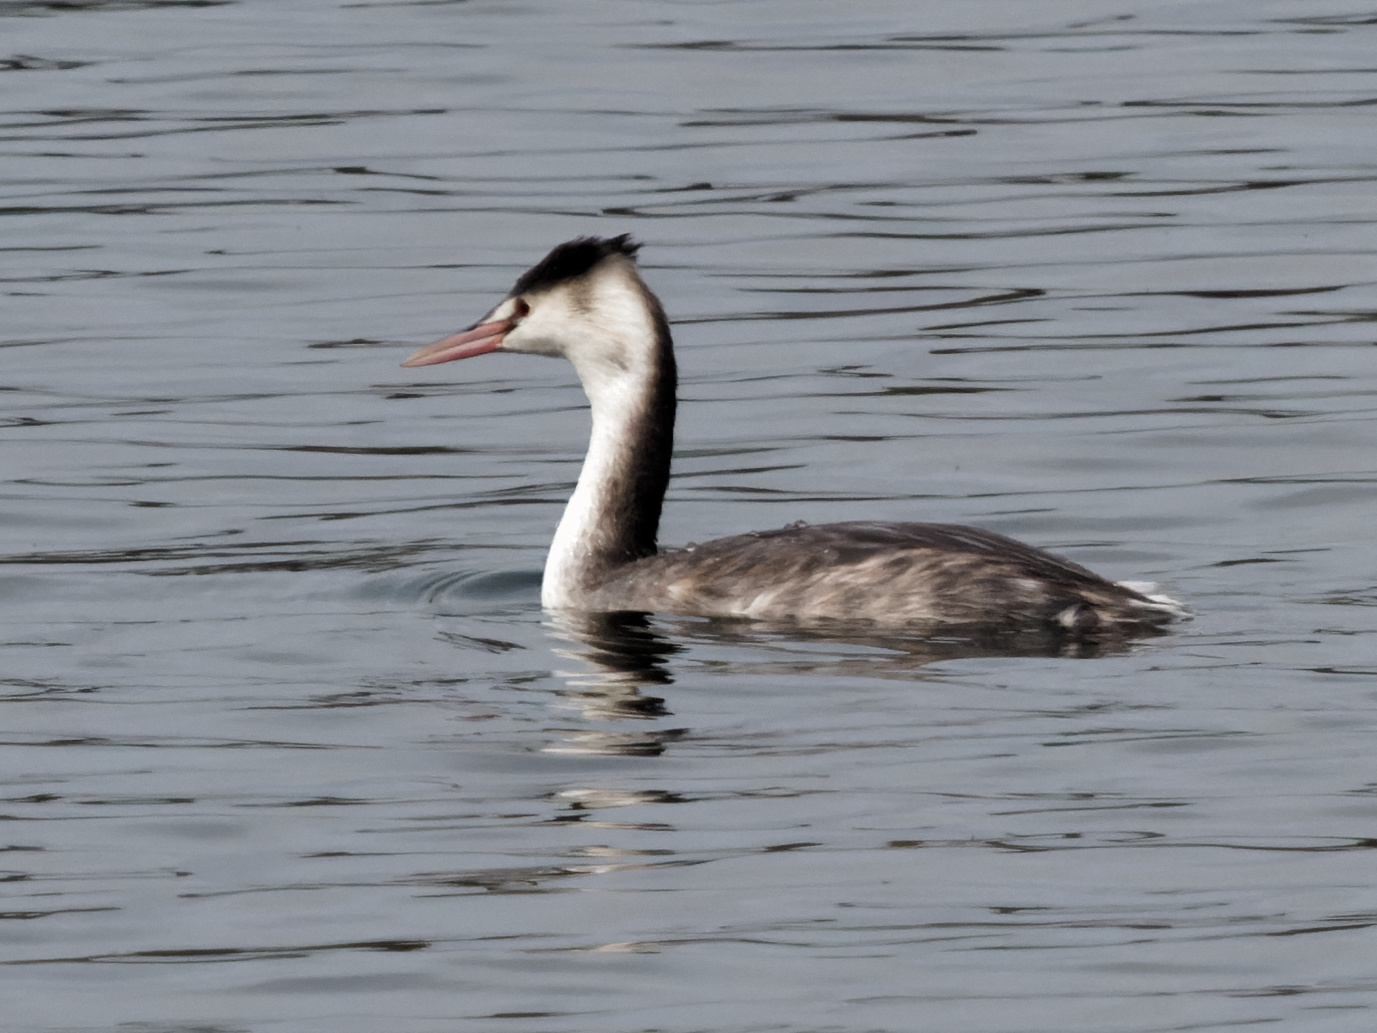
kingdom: Animalia
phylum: Chordata
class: Aves
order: Podicipediformes
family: Podicipedidae
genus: Podiceps
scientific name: Podiceps cristatus
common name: Great crested grebe
